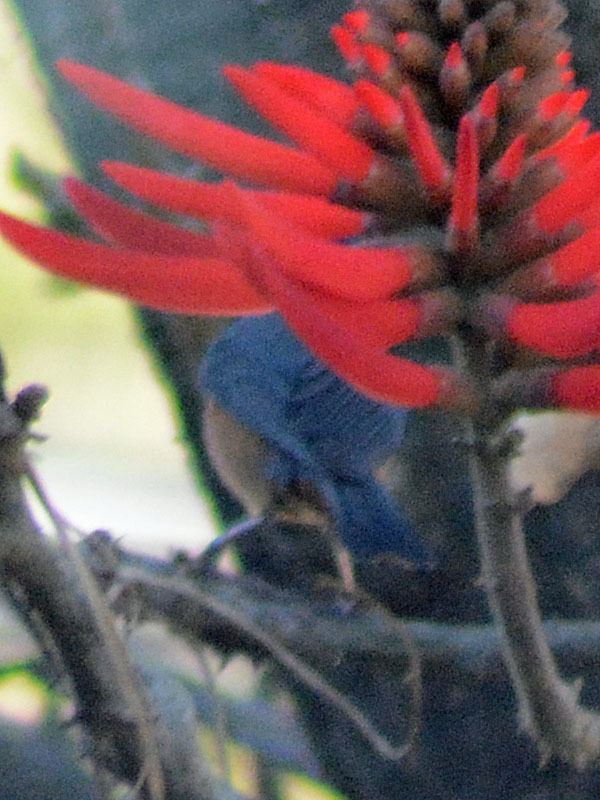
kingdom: Animalia
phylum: Chordata
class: Aves
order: Passeriformes
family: Thraupidae
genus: Diglossa
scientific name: Diglossa baritula
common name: Cinnamon-bellied flowerpiercer
